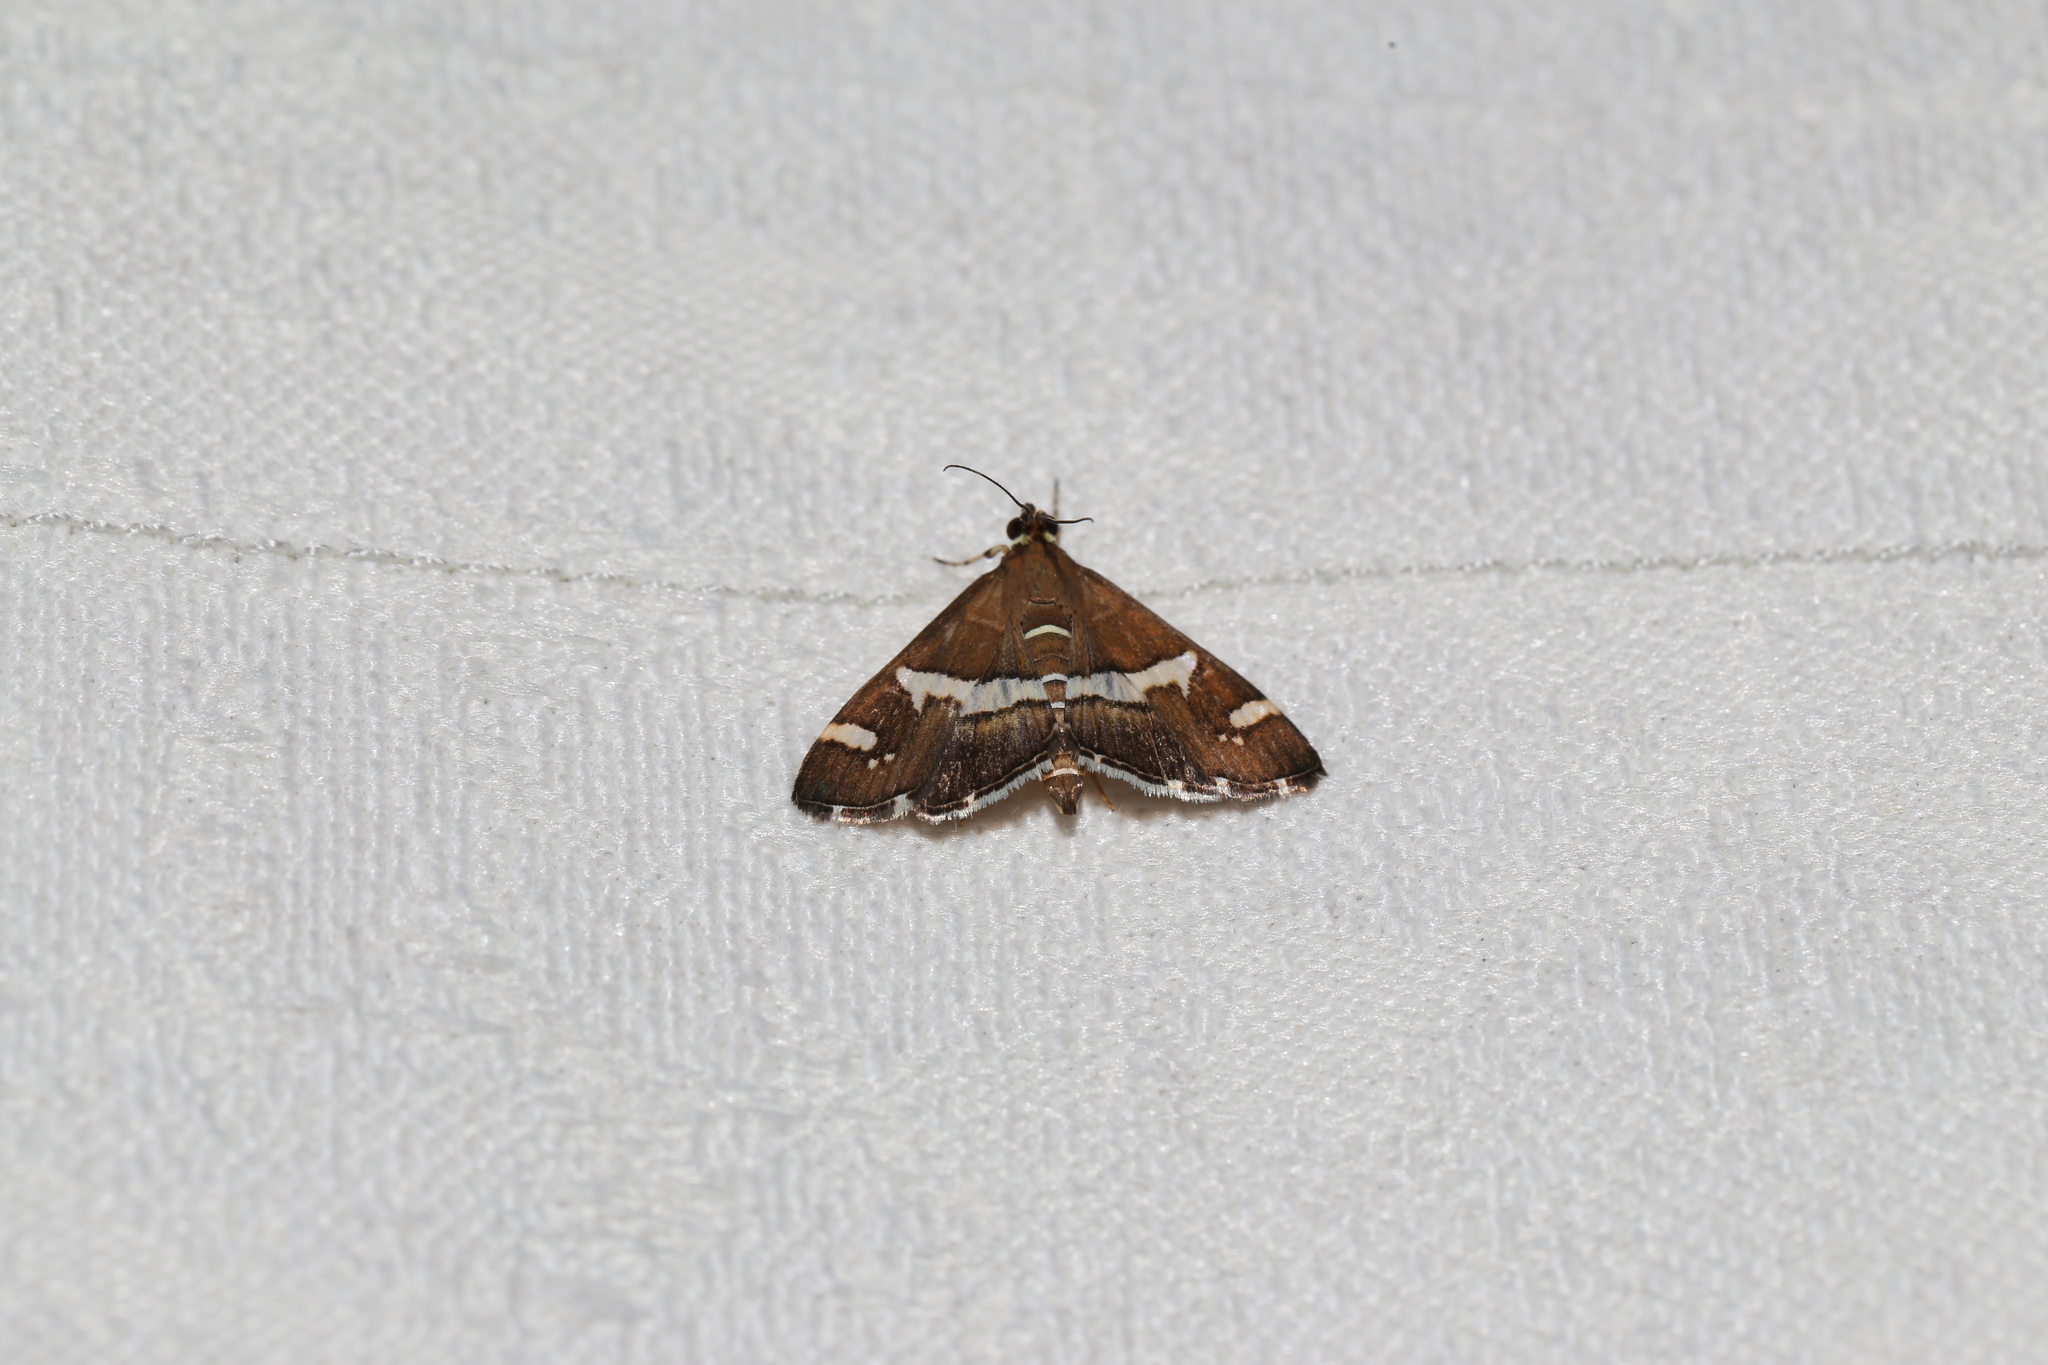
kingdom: Animalia
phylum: Arthropoda
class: Insecta
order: Lepidoptera
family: Crambidae
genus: Spoladea
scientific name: Spoladea recurvalis
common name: Beet webworm moth
